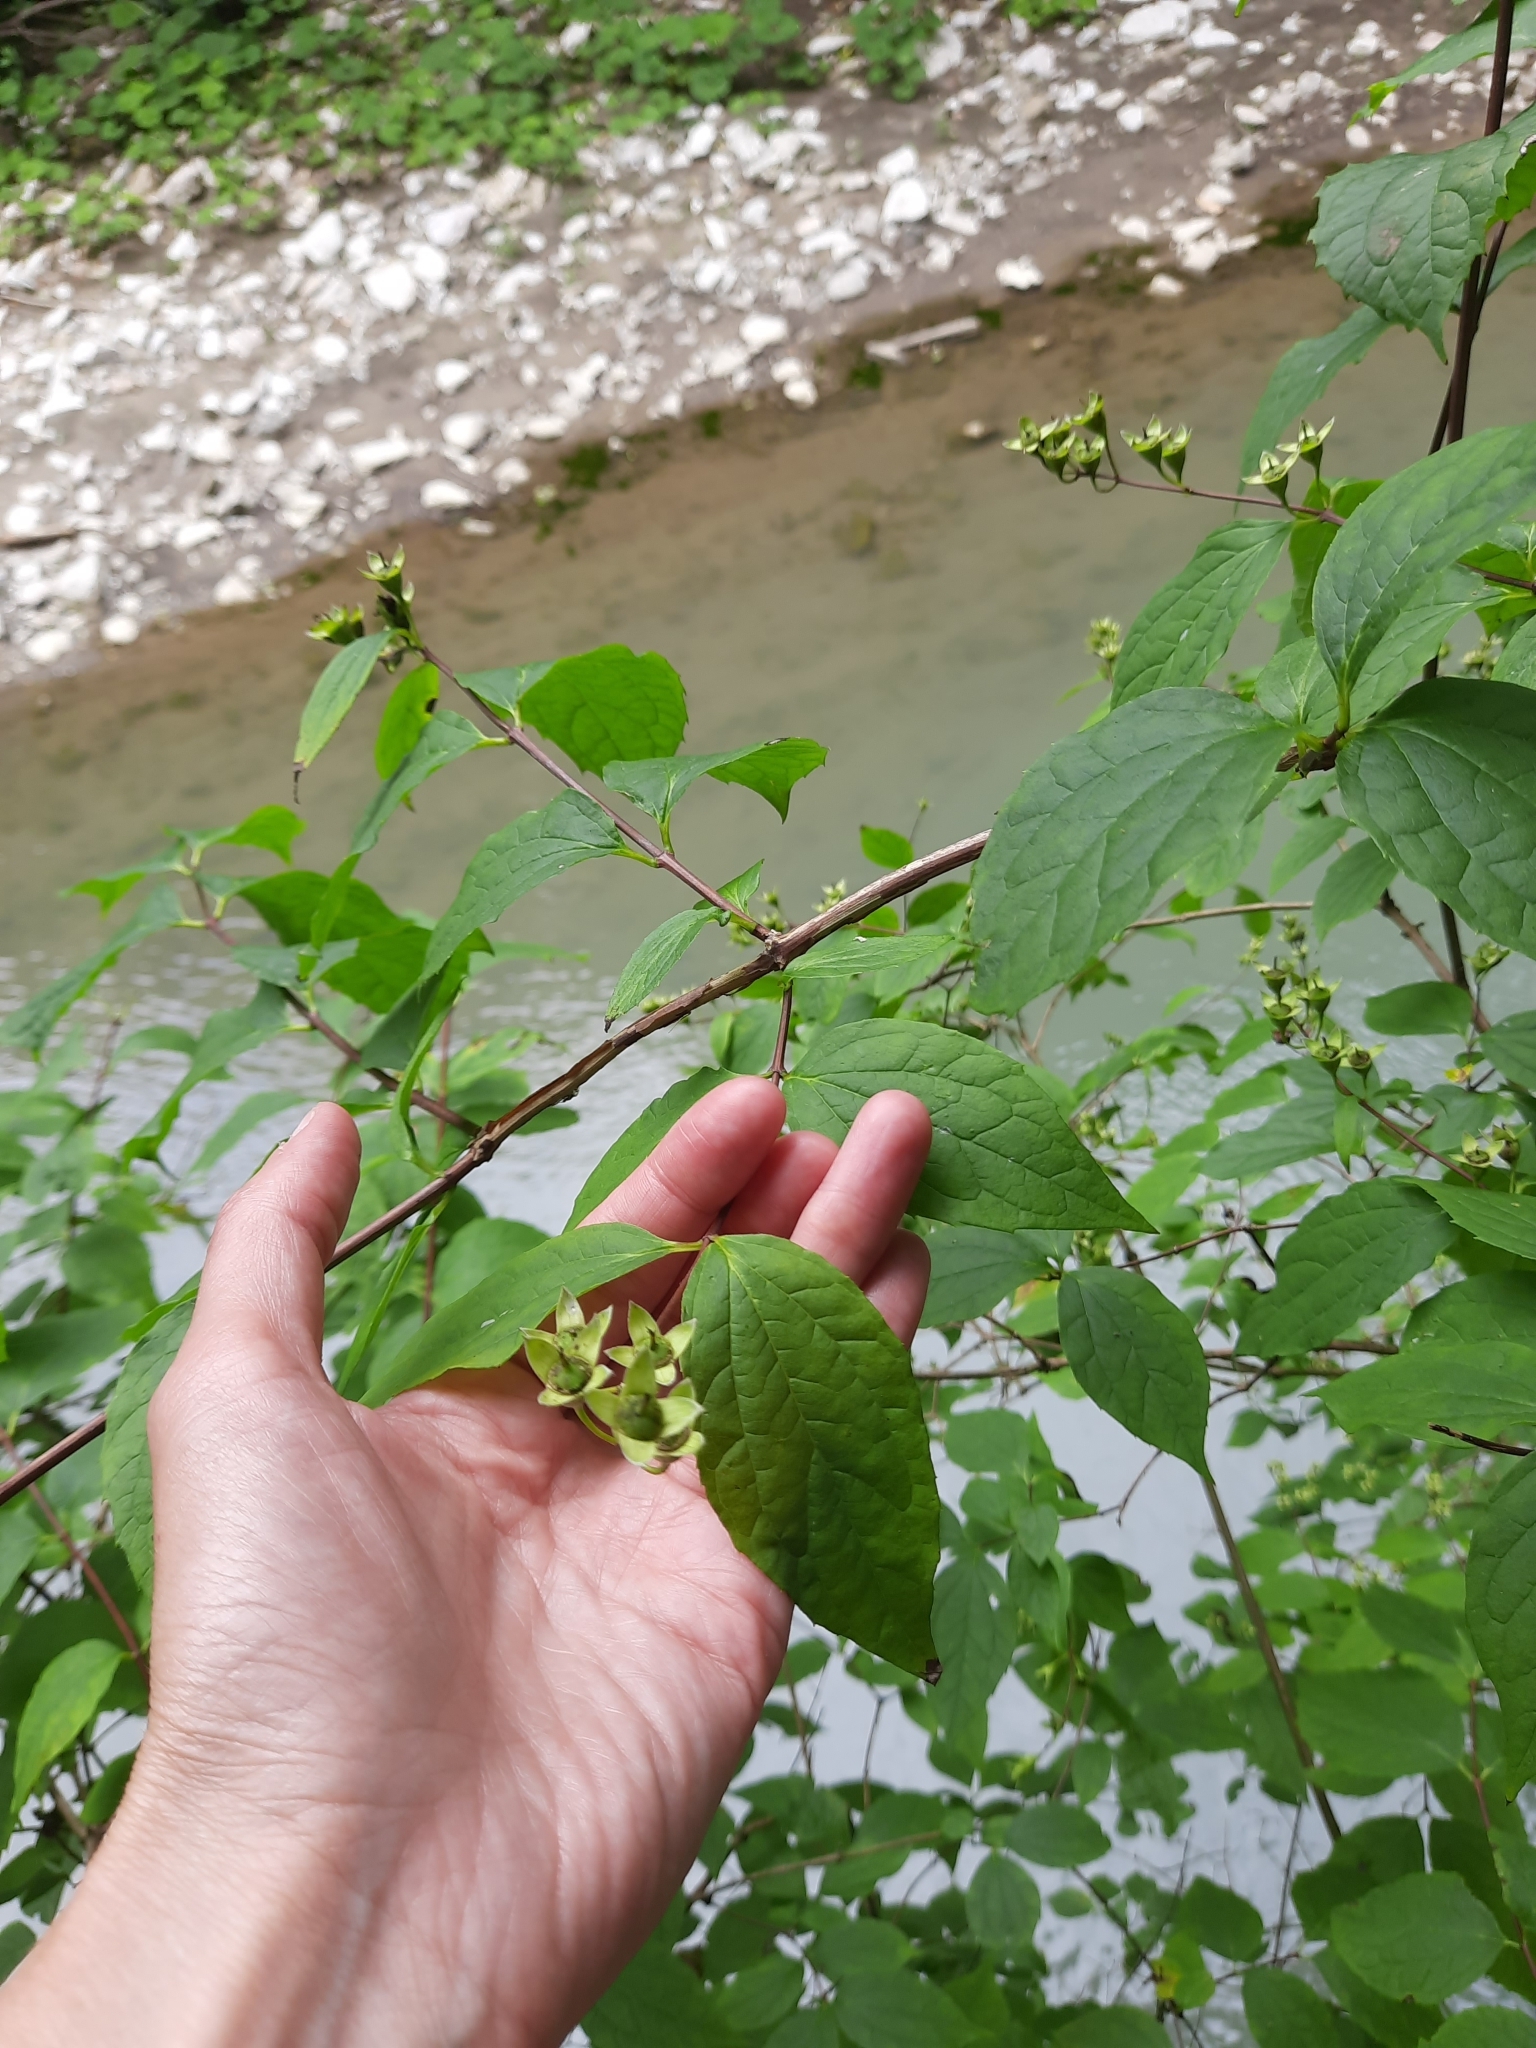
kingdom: Plantae
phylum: Tracheophyta
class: Magnoliopsida
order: Cornales
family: Hydrangeaceae
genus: Philadelphus
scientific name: Philadelphus coronarius
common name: Mock orange
